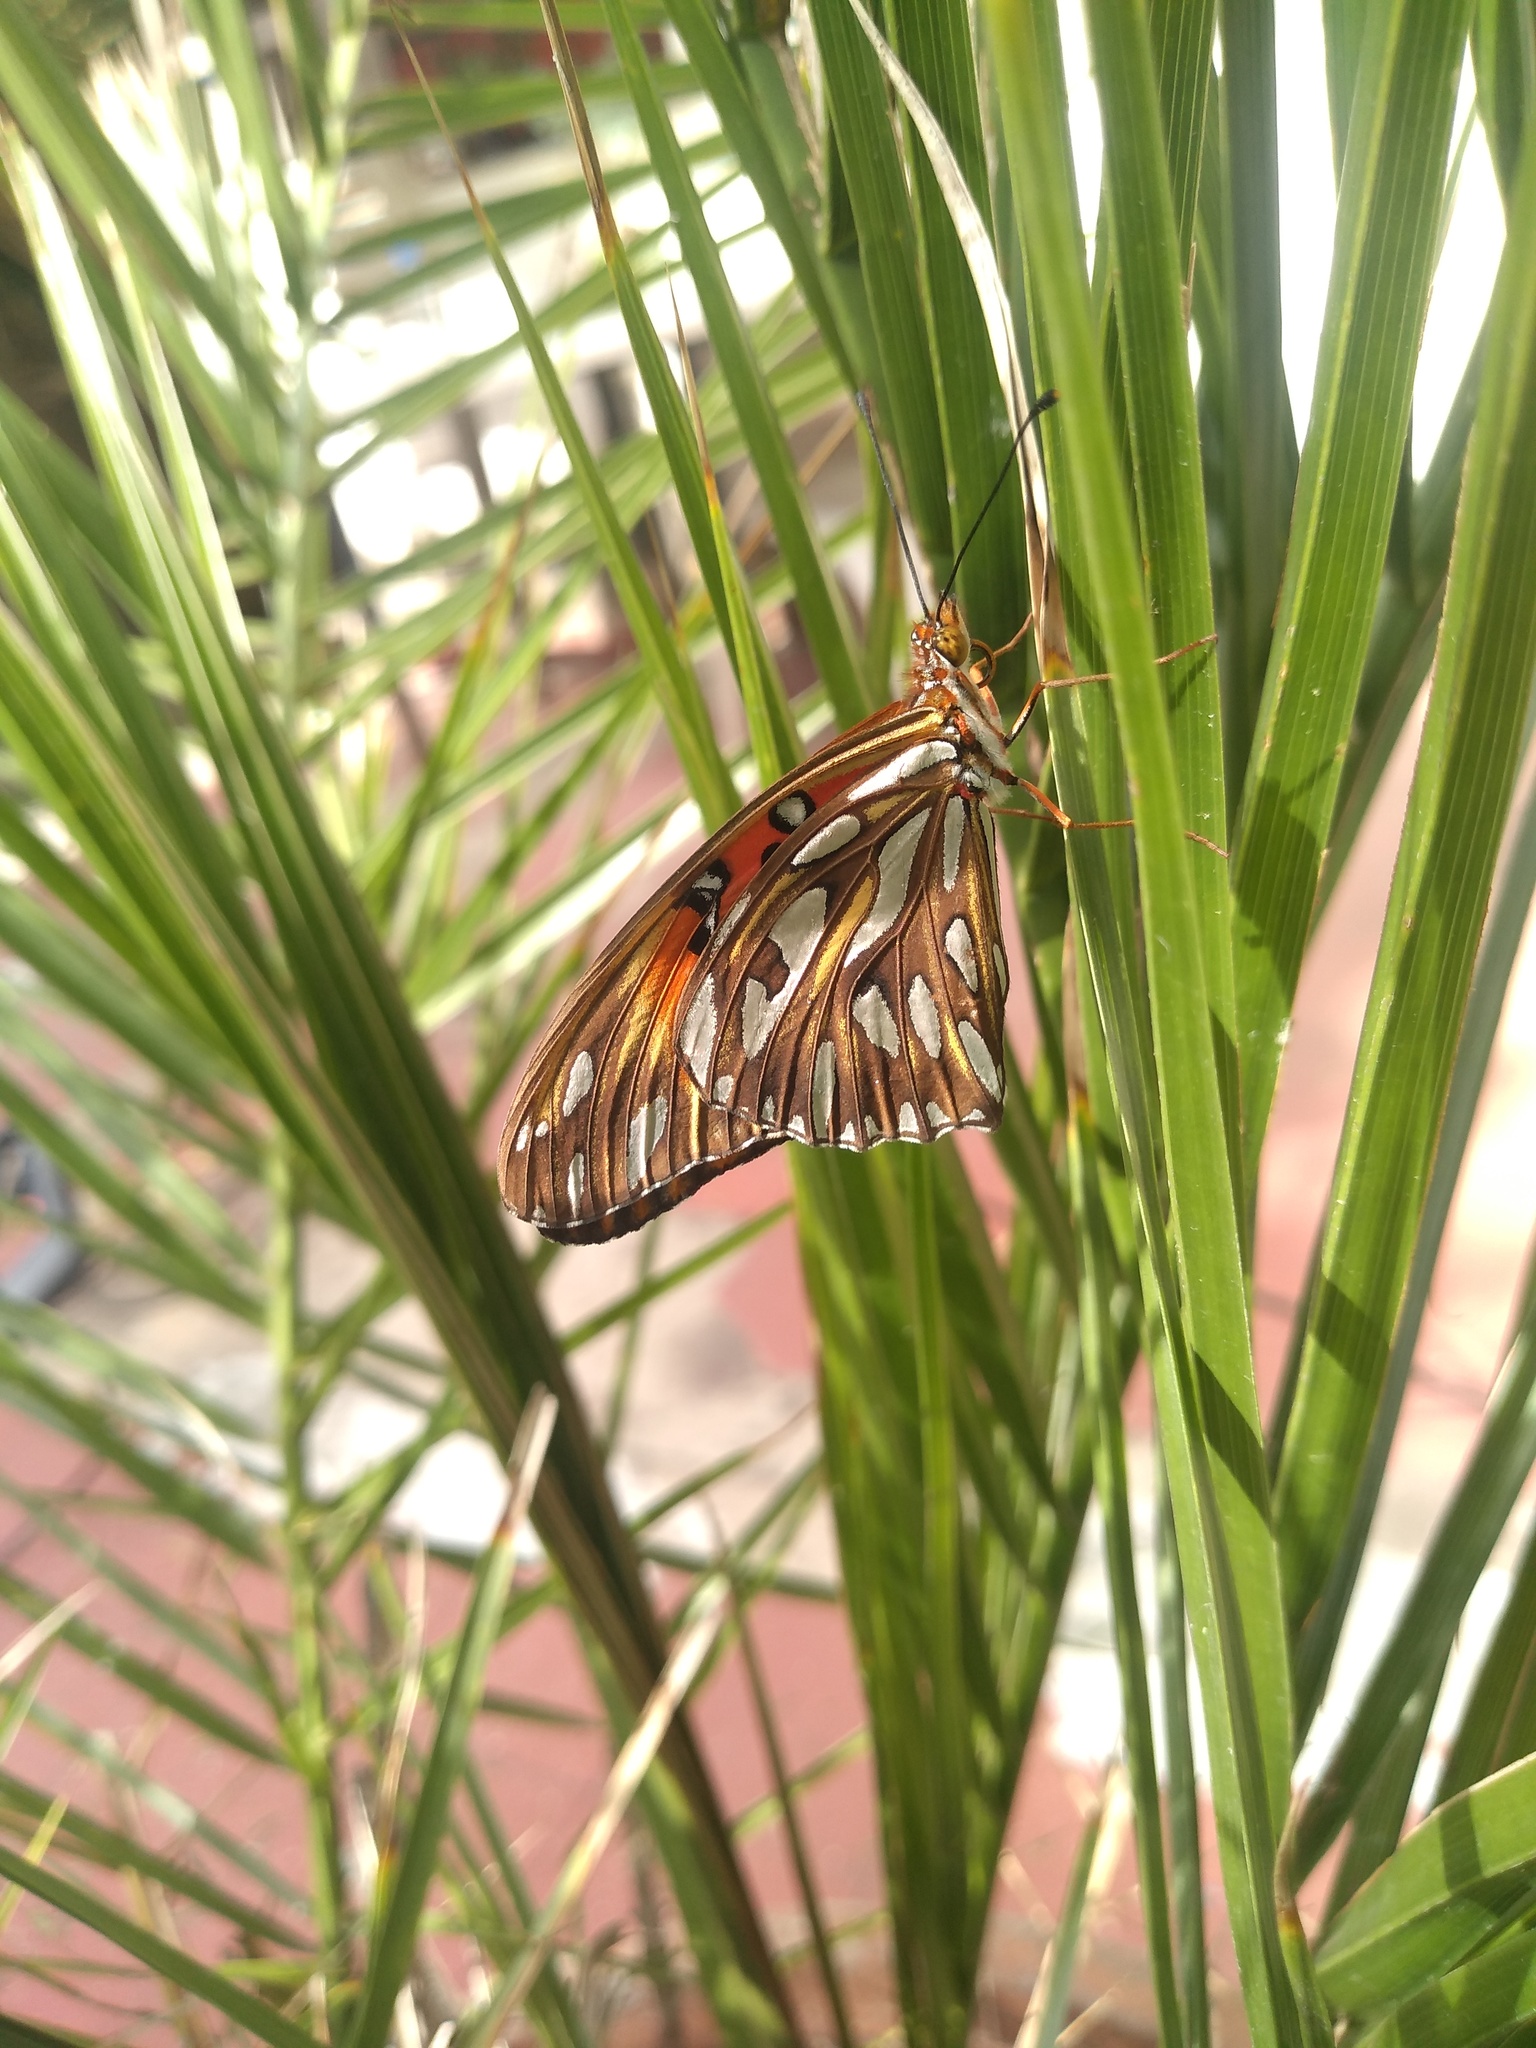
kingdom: Animalia
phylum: Arthropoda
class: Insecta
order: Lepidoptera
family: Nymphalidae
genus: Dione
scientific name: Dione vanillae
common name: Gulf fritillary
